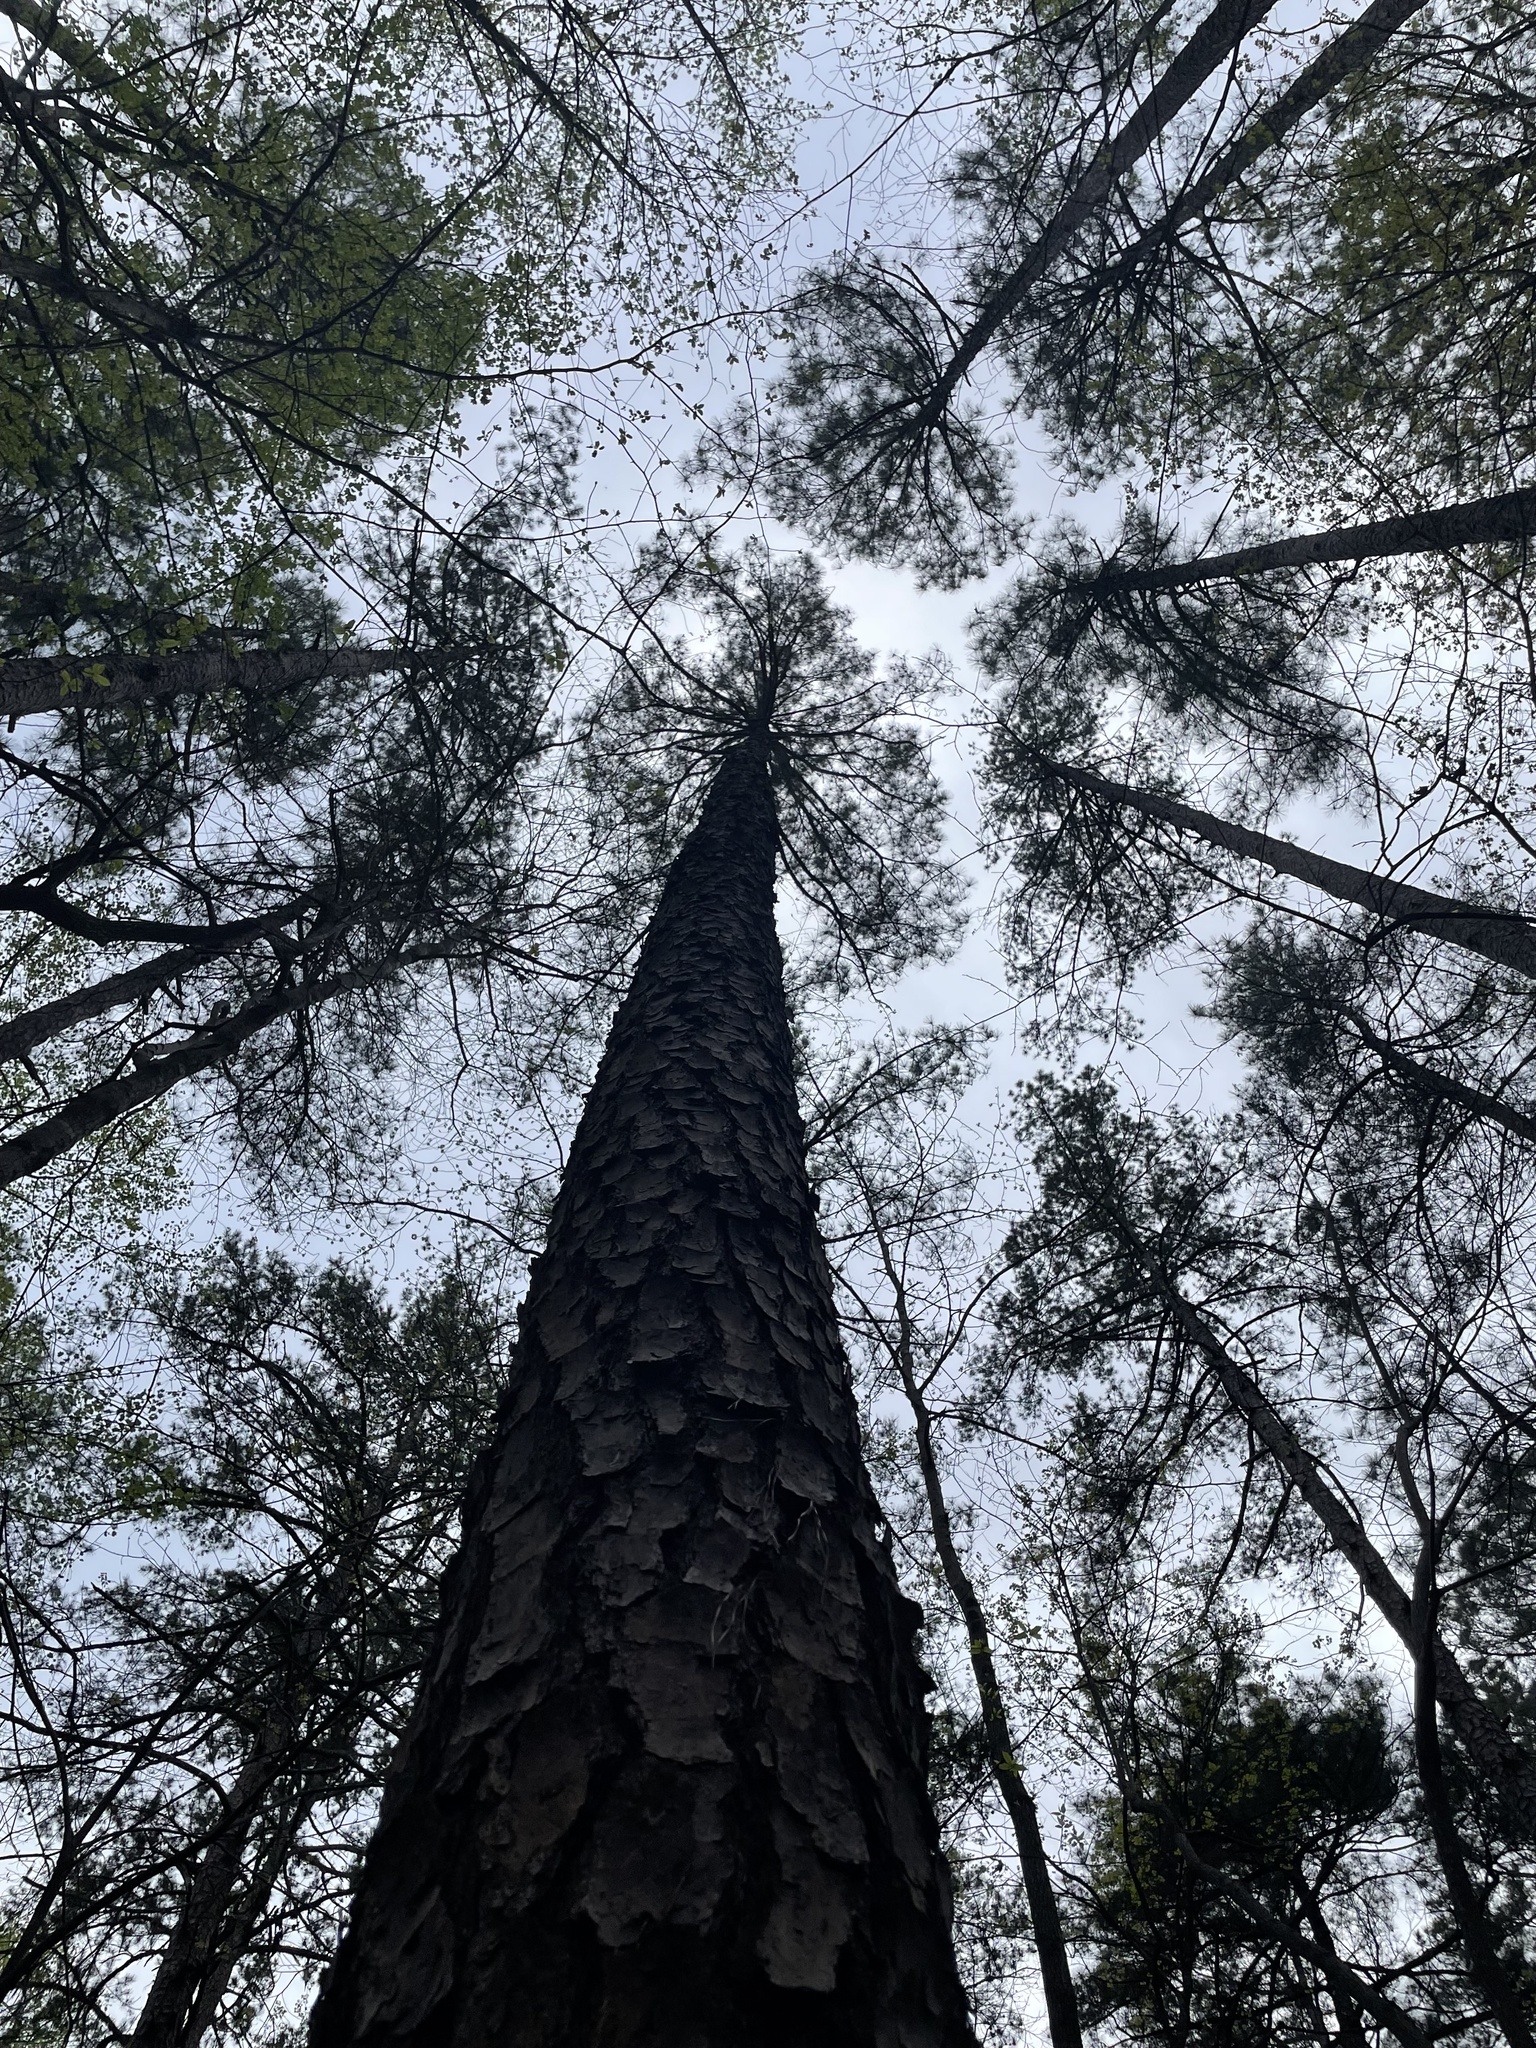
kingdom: Plantae
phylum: Tracheophyta
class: Pinopsida
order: Pinales
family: Pinaceae
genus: Pinus
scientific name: Pinus taeda
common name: Loblolly pine
